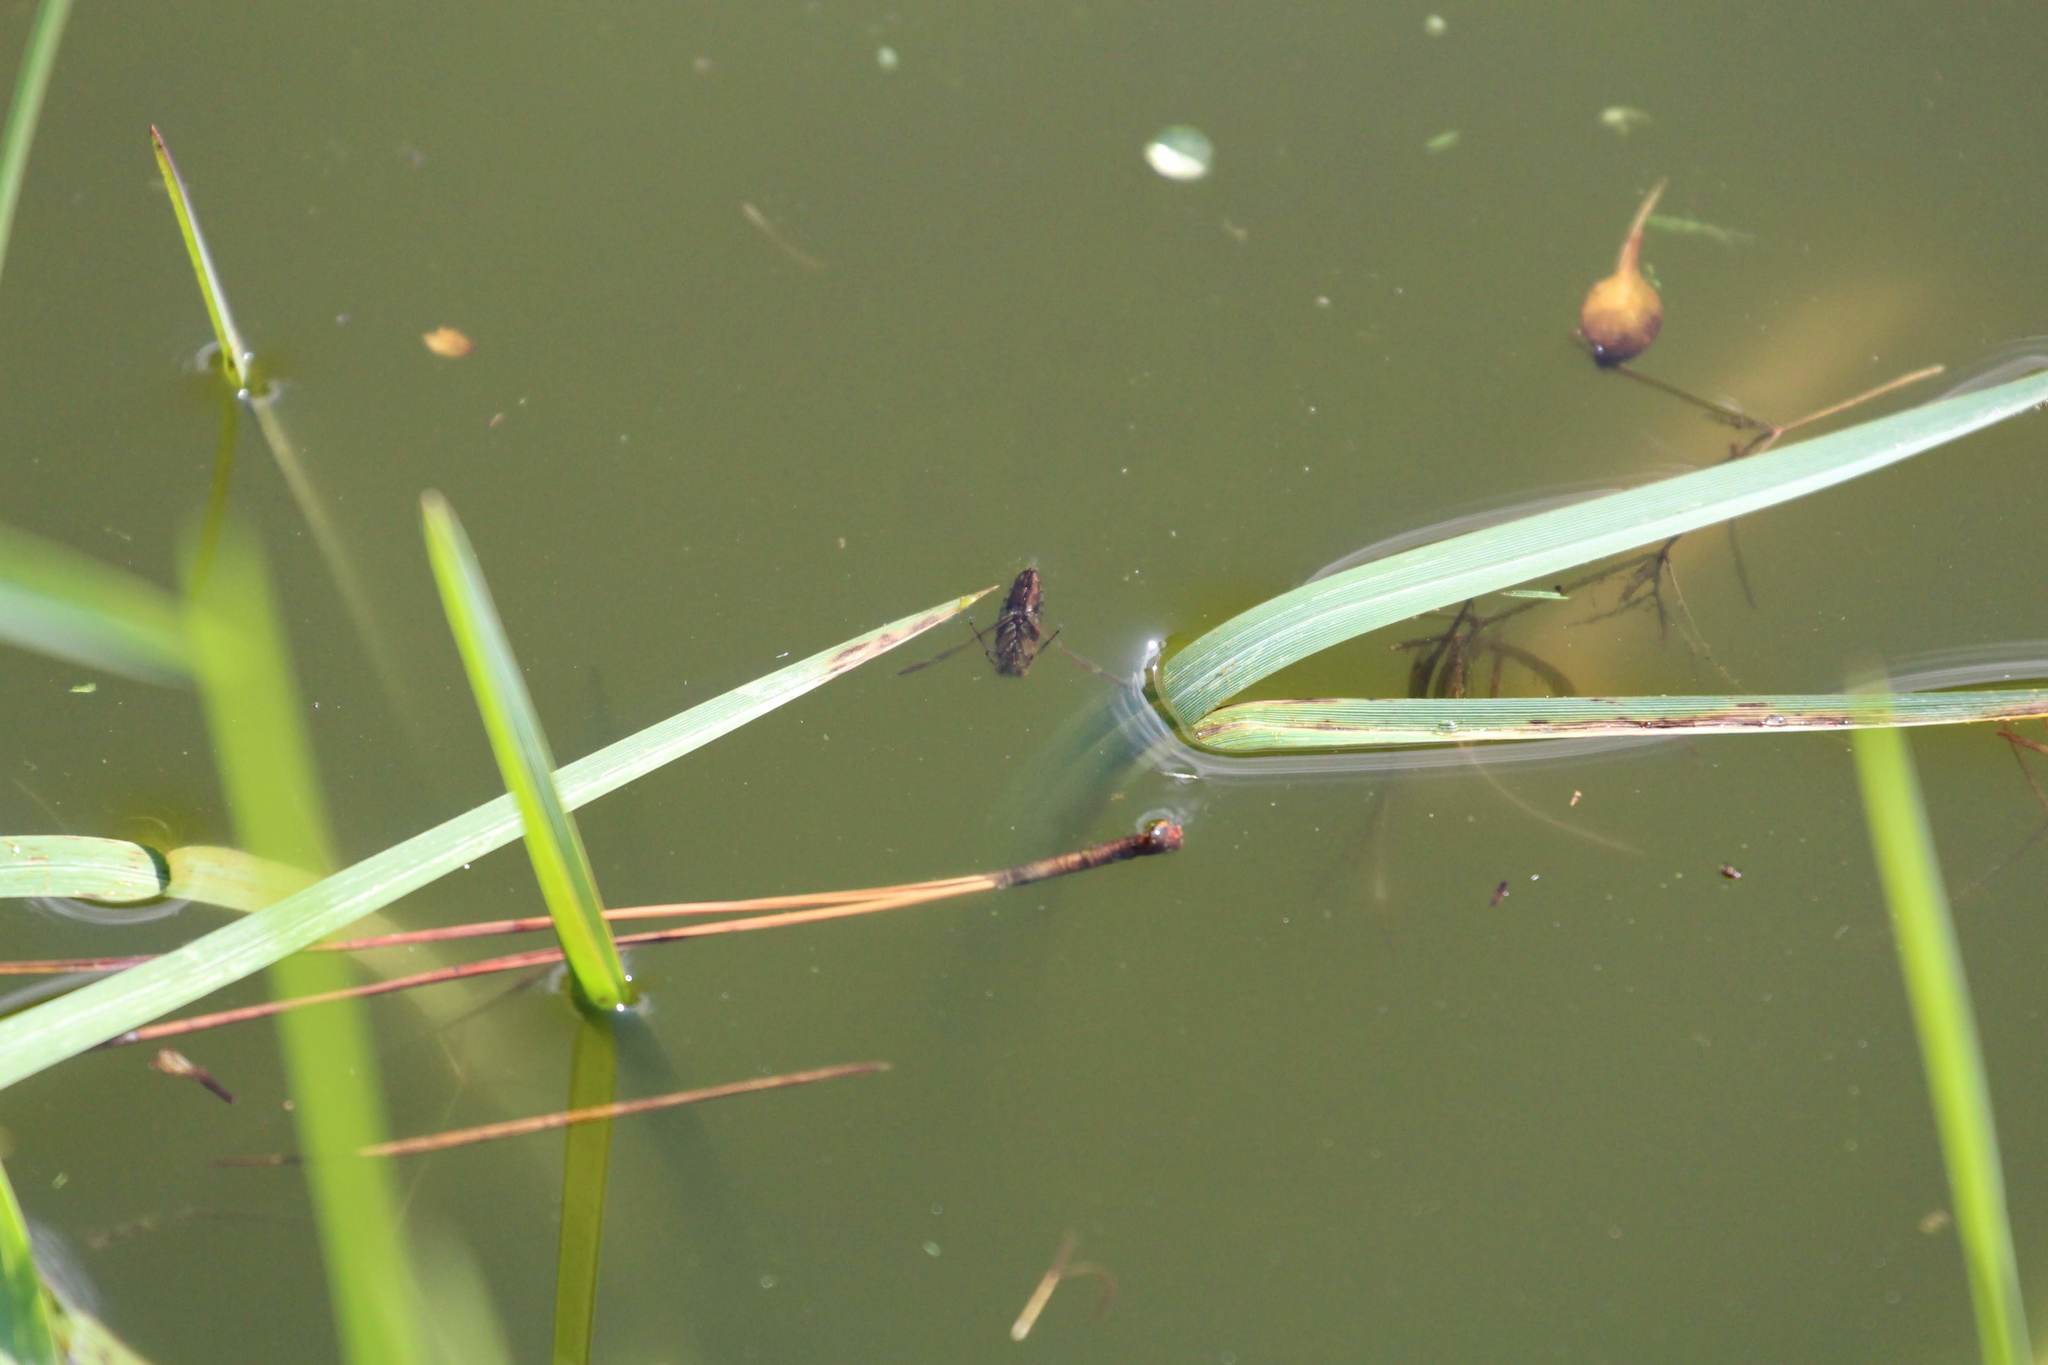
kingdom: Animalia
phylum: Arthropoda
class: Insecta
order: Hemiptera
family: Notonectidae
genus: Notonecta
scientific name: Notonecta
